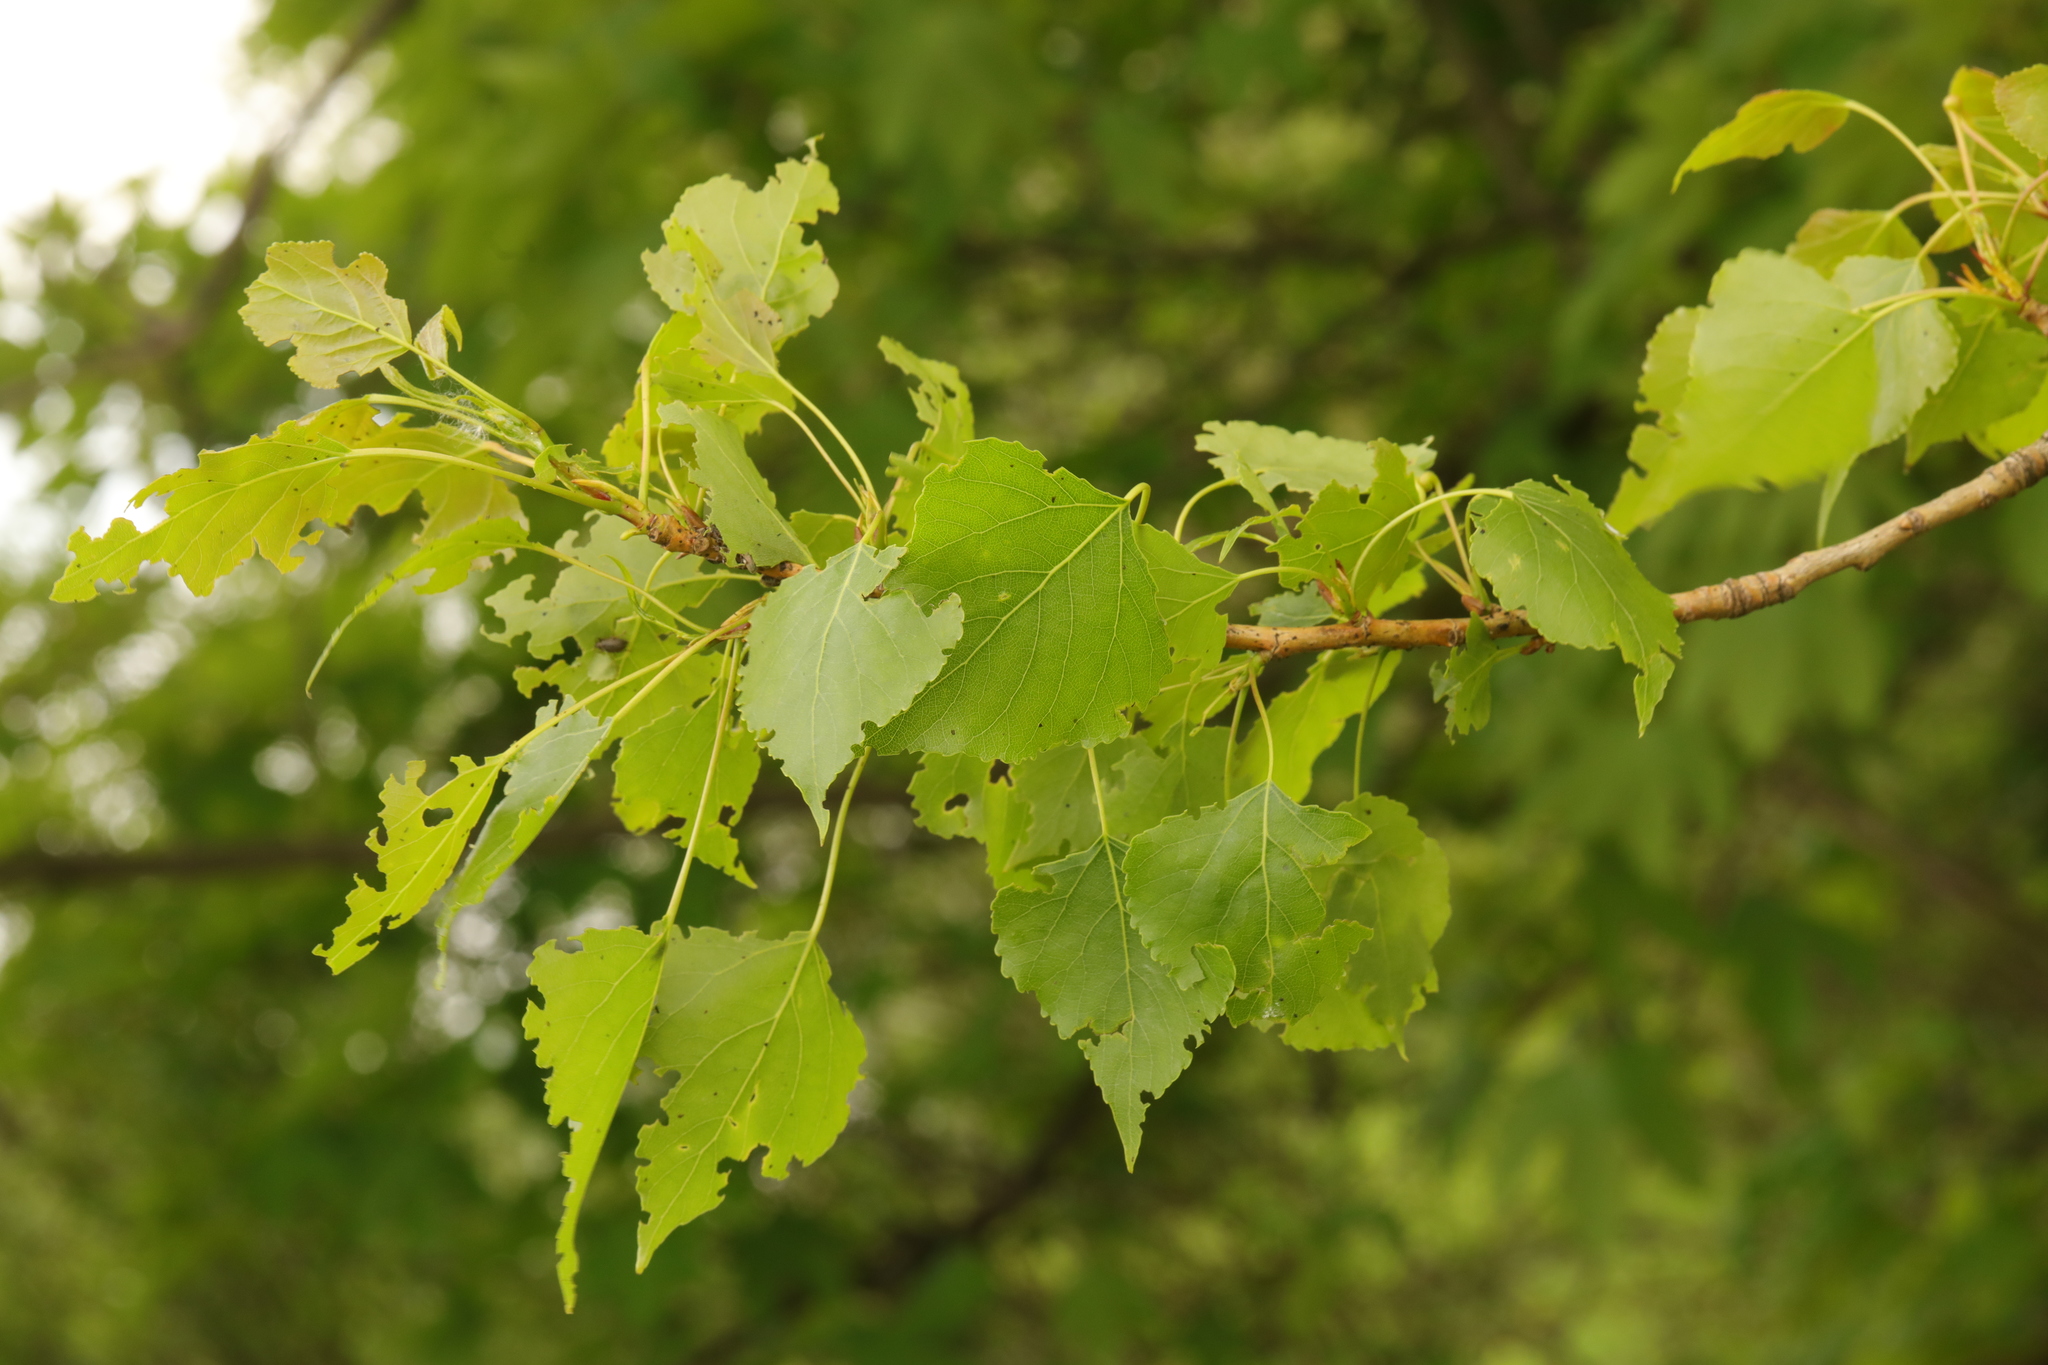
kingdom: Plantae
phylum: Tracheophyta
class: Magnoliopsida
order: Malpighiales
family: Salicaceae
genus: Populus
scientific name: Populus nigra
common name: Black poplar
